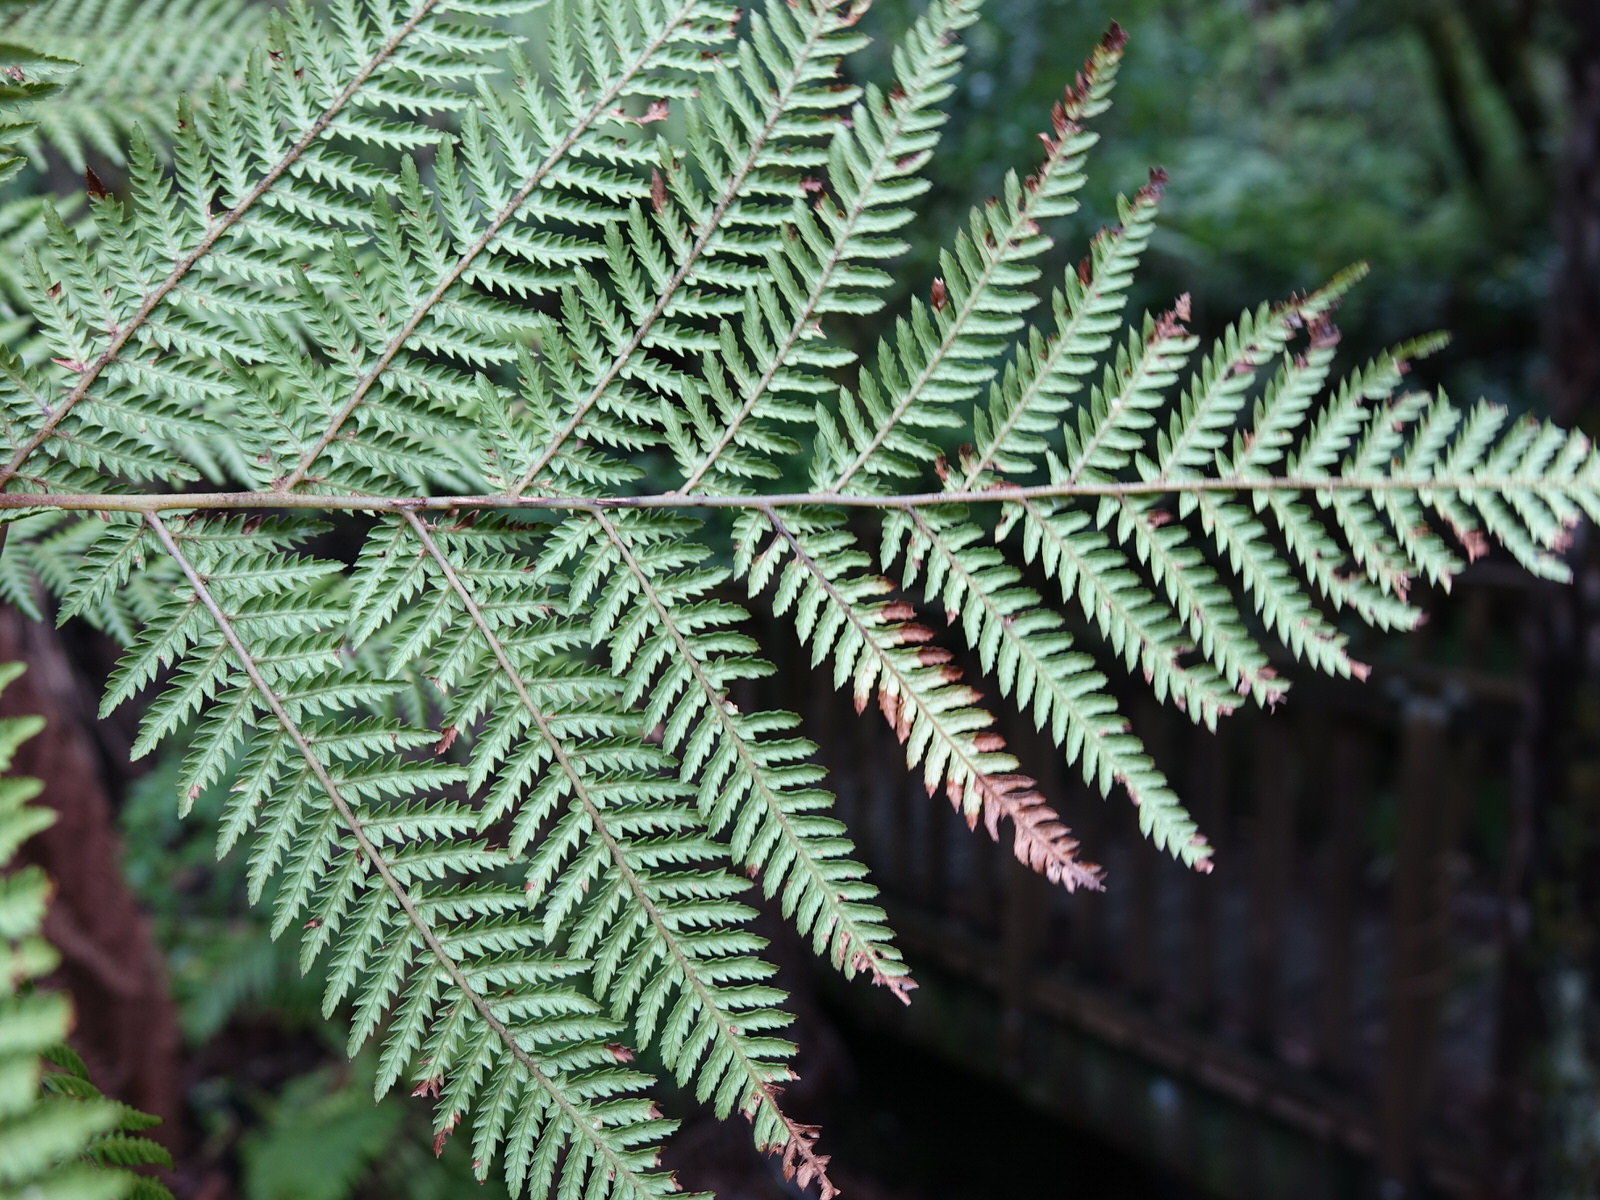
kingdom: Plantae
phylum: Tracheophyta
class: Polypodiopsida
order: Cyatheales
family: Dicksoniaceae
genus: Dicksonia
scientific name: Dicksonia fibrosa
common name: Golden tree fern
